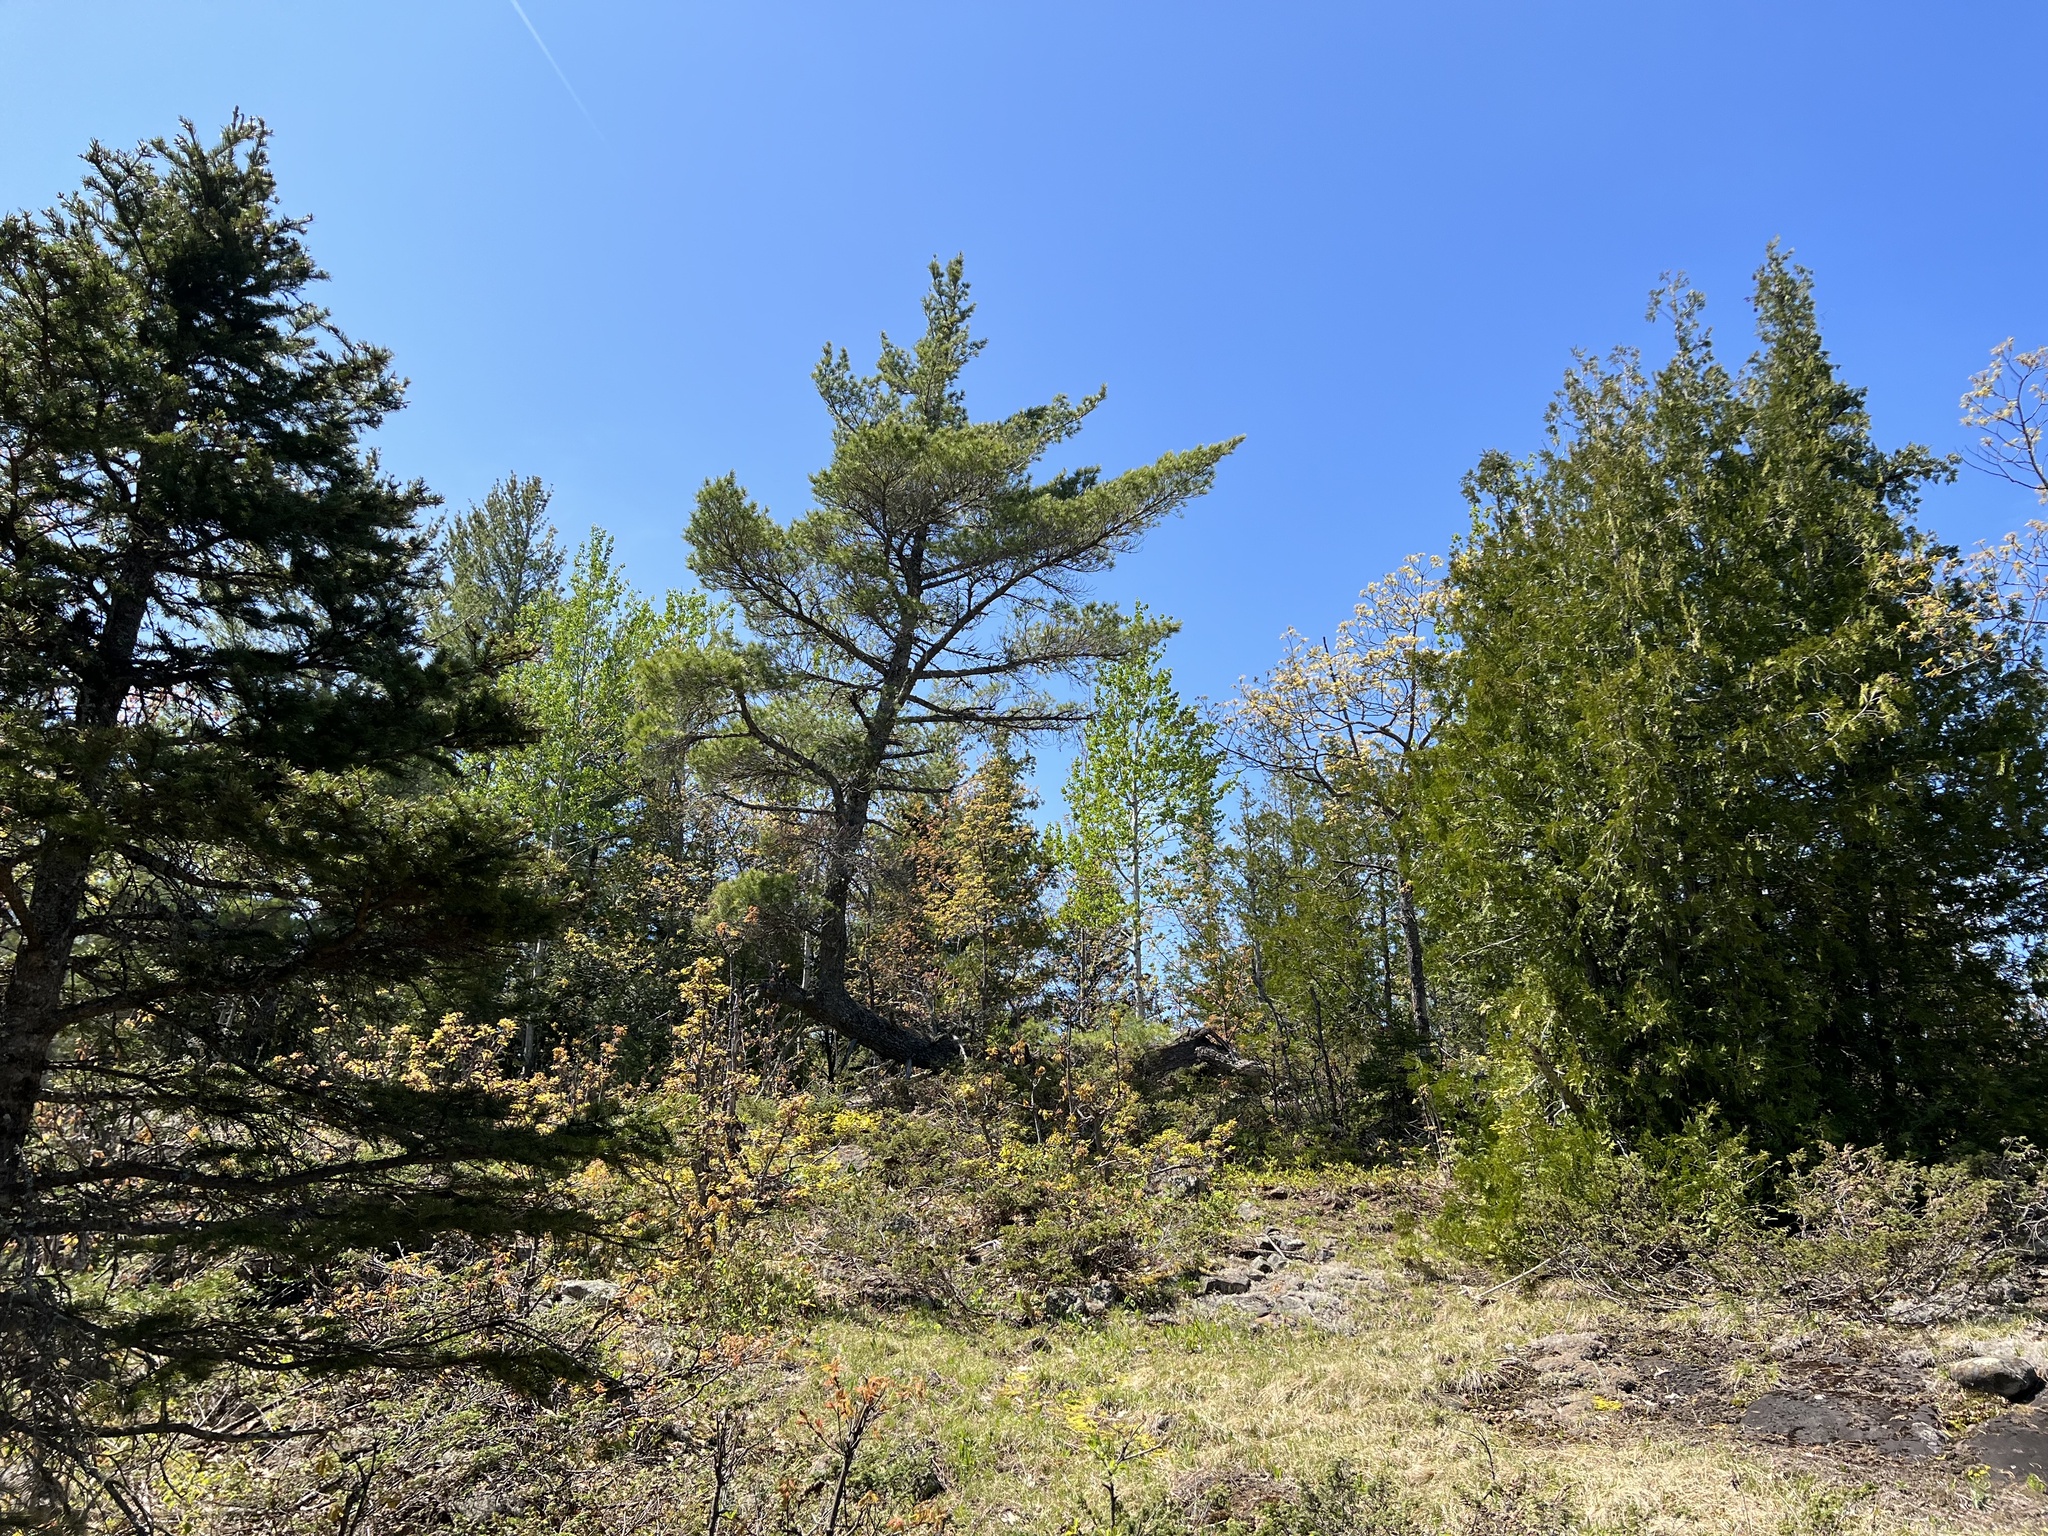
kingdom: Plantae
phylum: Tracheophyta
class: Pinopsida
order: Pinales
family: Pinaceae
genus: Pinus
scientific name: Pinus strobus
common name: Weymouth pine
